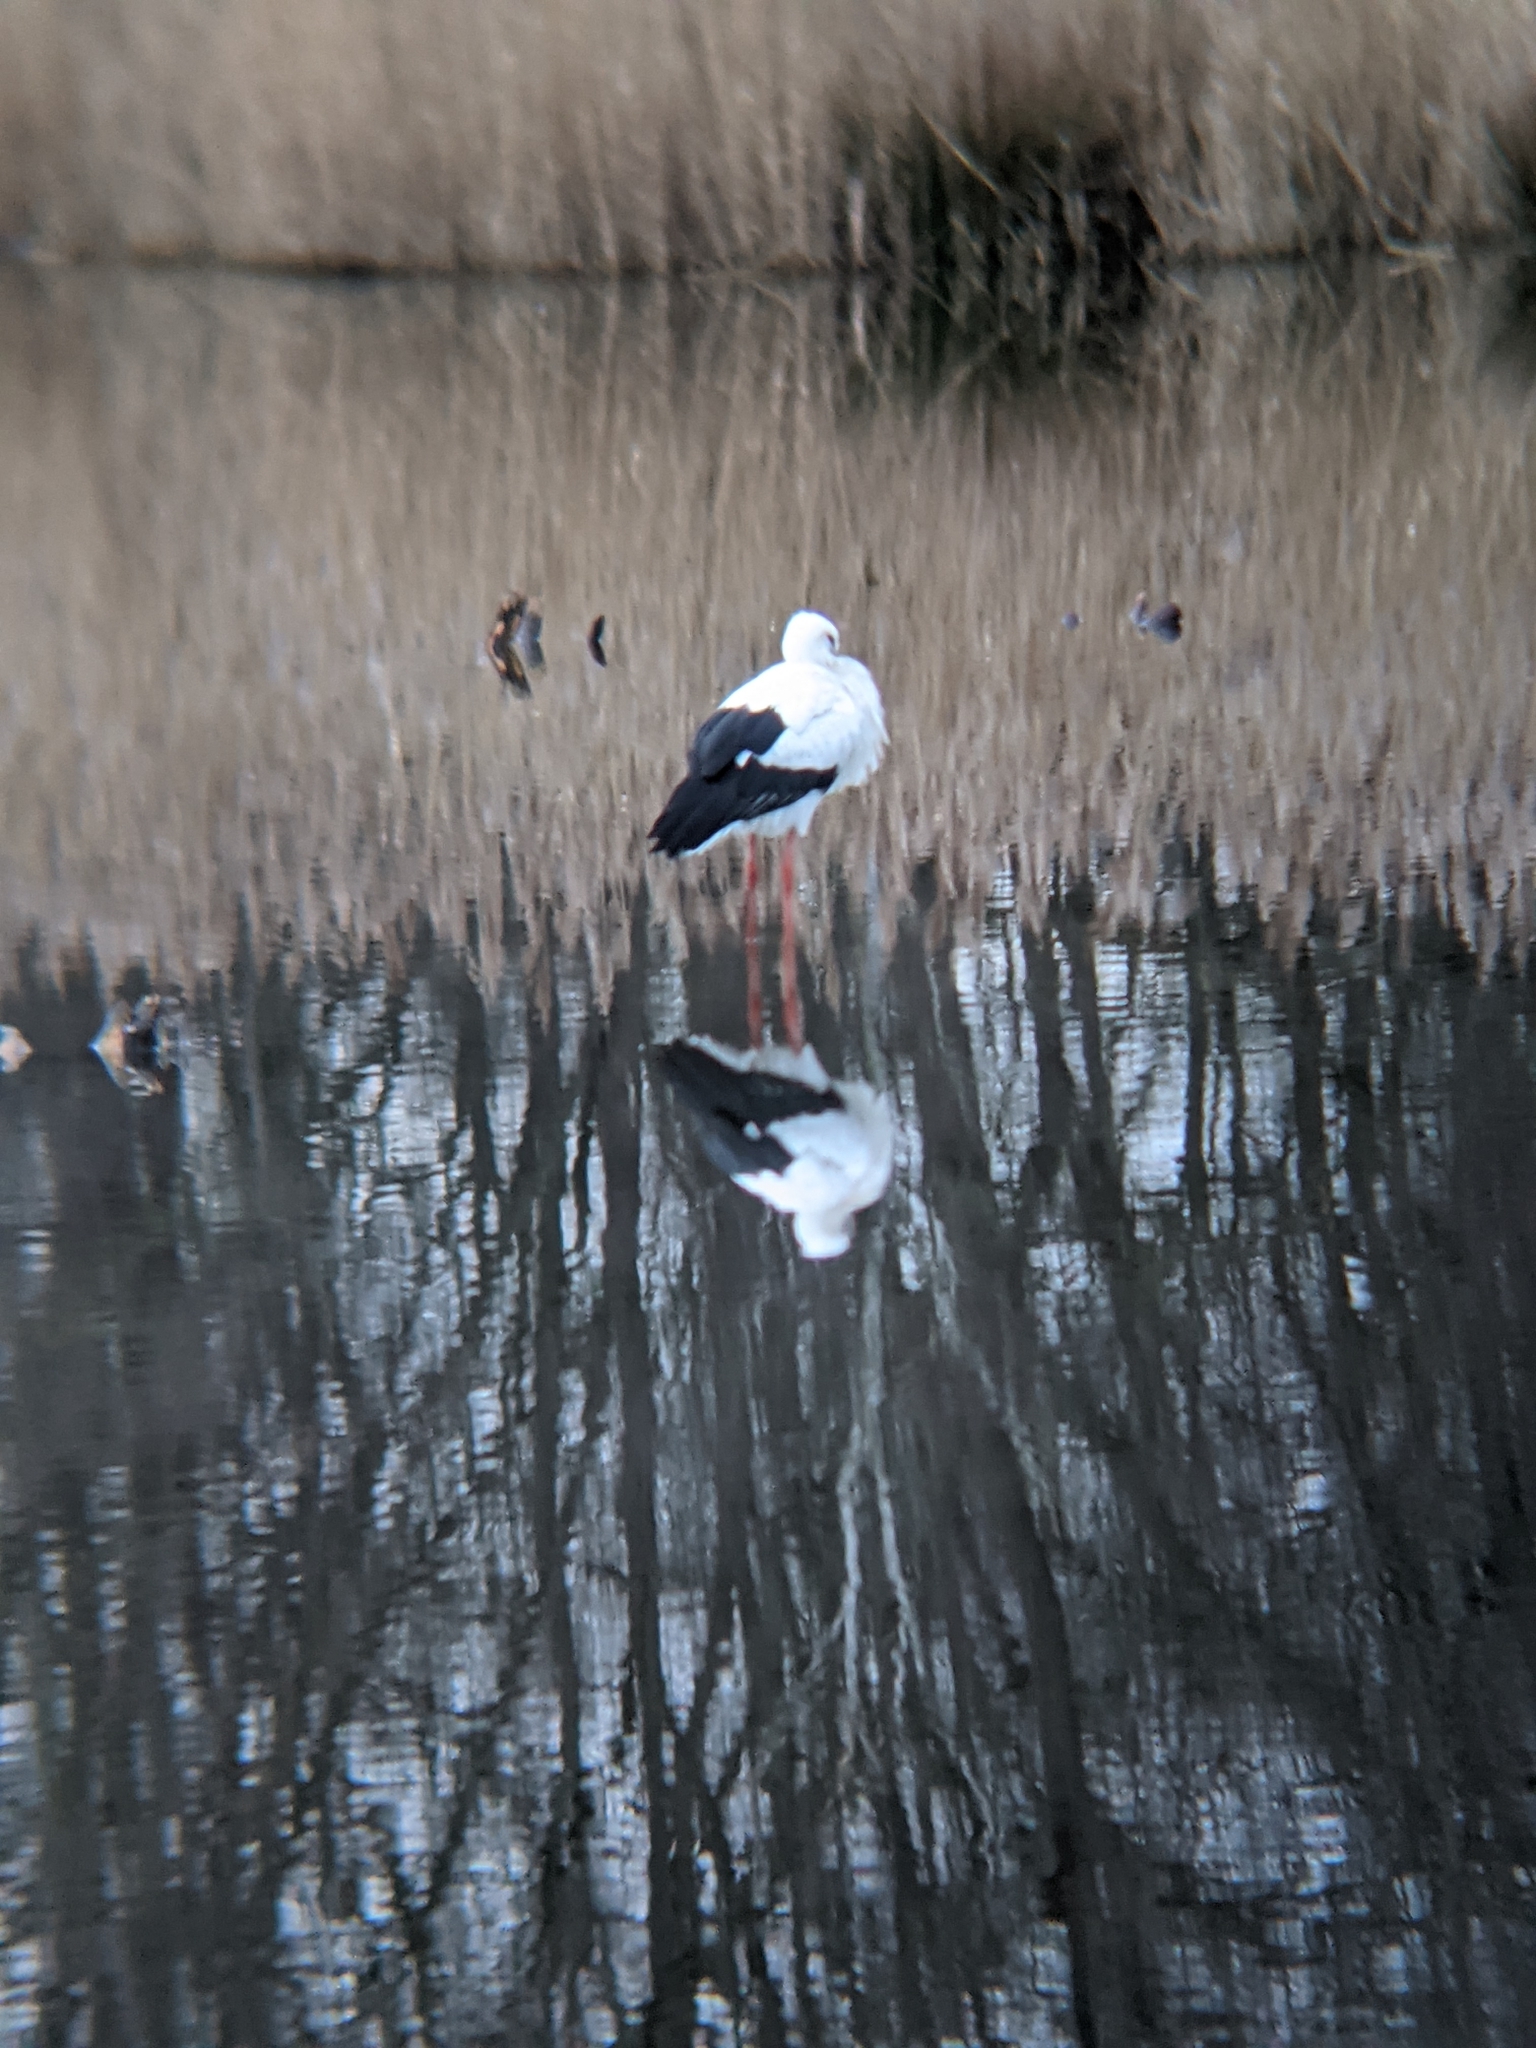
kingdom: Animalia
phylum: Chordata
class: Aves
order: Ciconiiformes
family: Ciconiidae
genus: Ciconia
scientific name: Ciconia ciconia
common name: White stork
